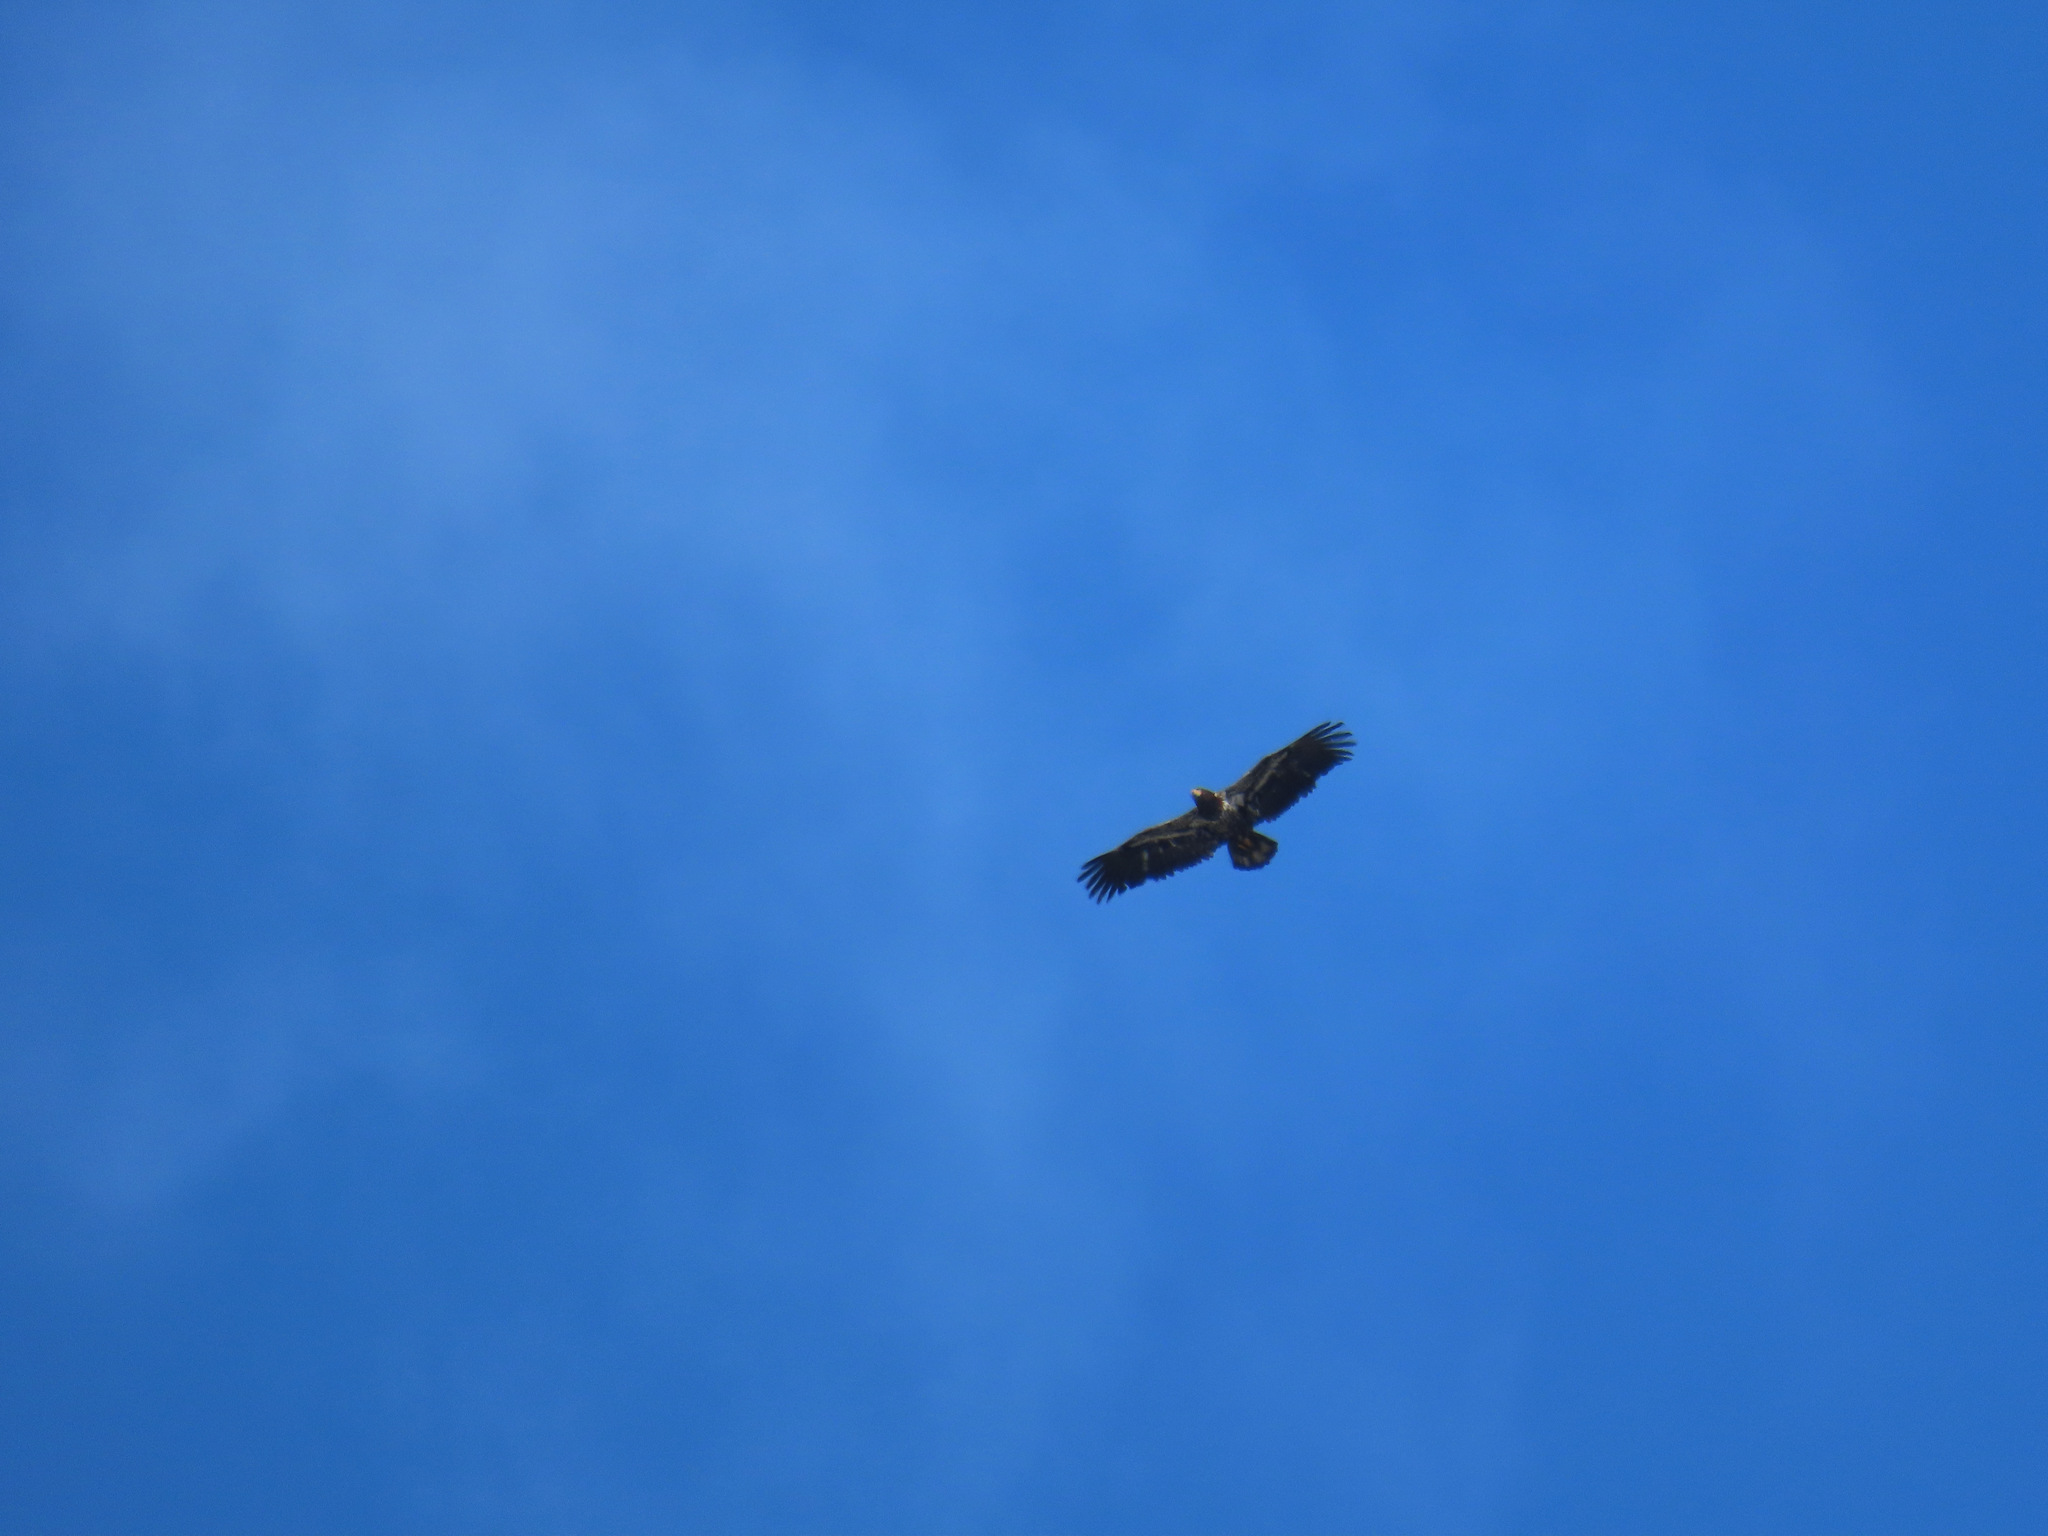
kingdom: Animalia
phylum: Chordata
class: Aves
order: Accipitriformes
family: Accipitridae
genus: Haliaeetus
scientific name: Haliaeetus leucocephalus
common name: Bald eagle
